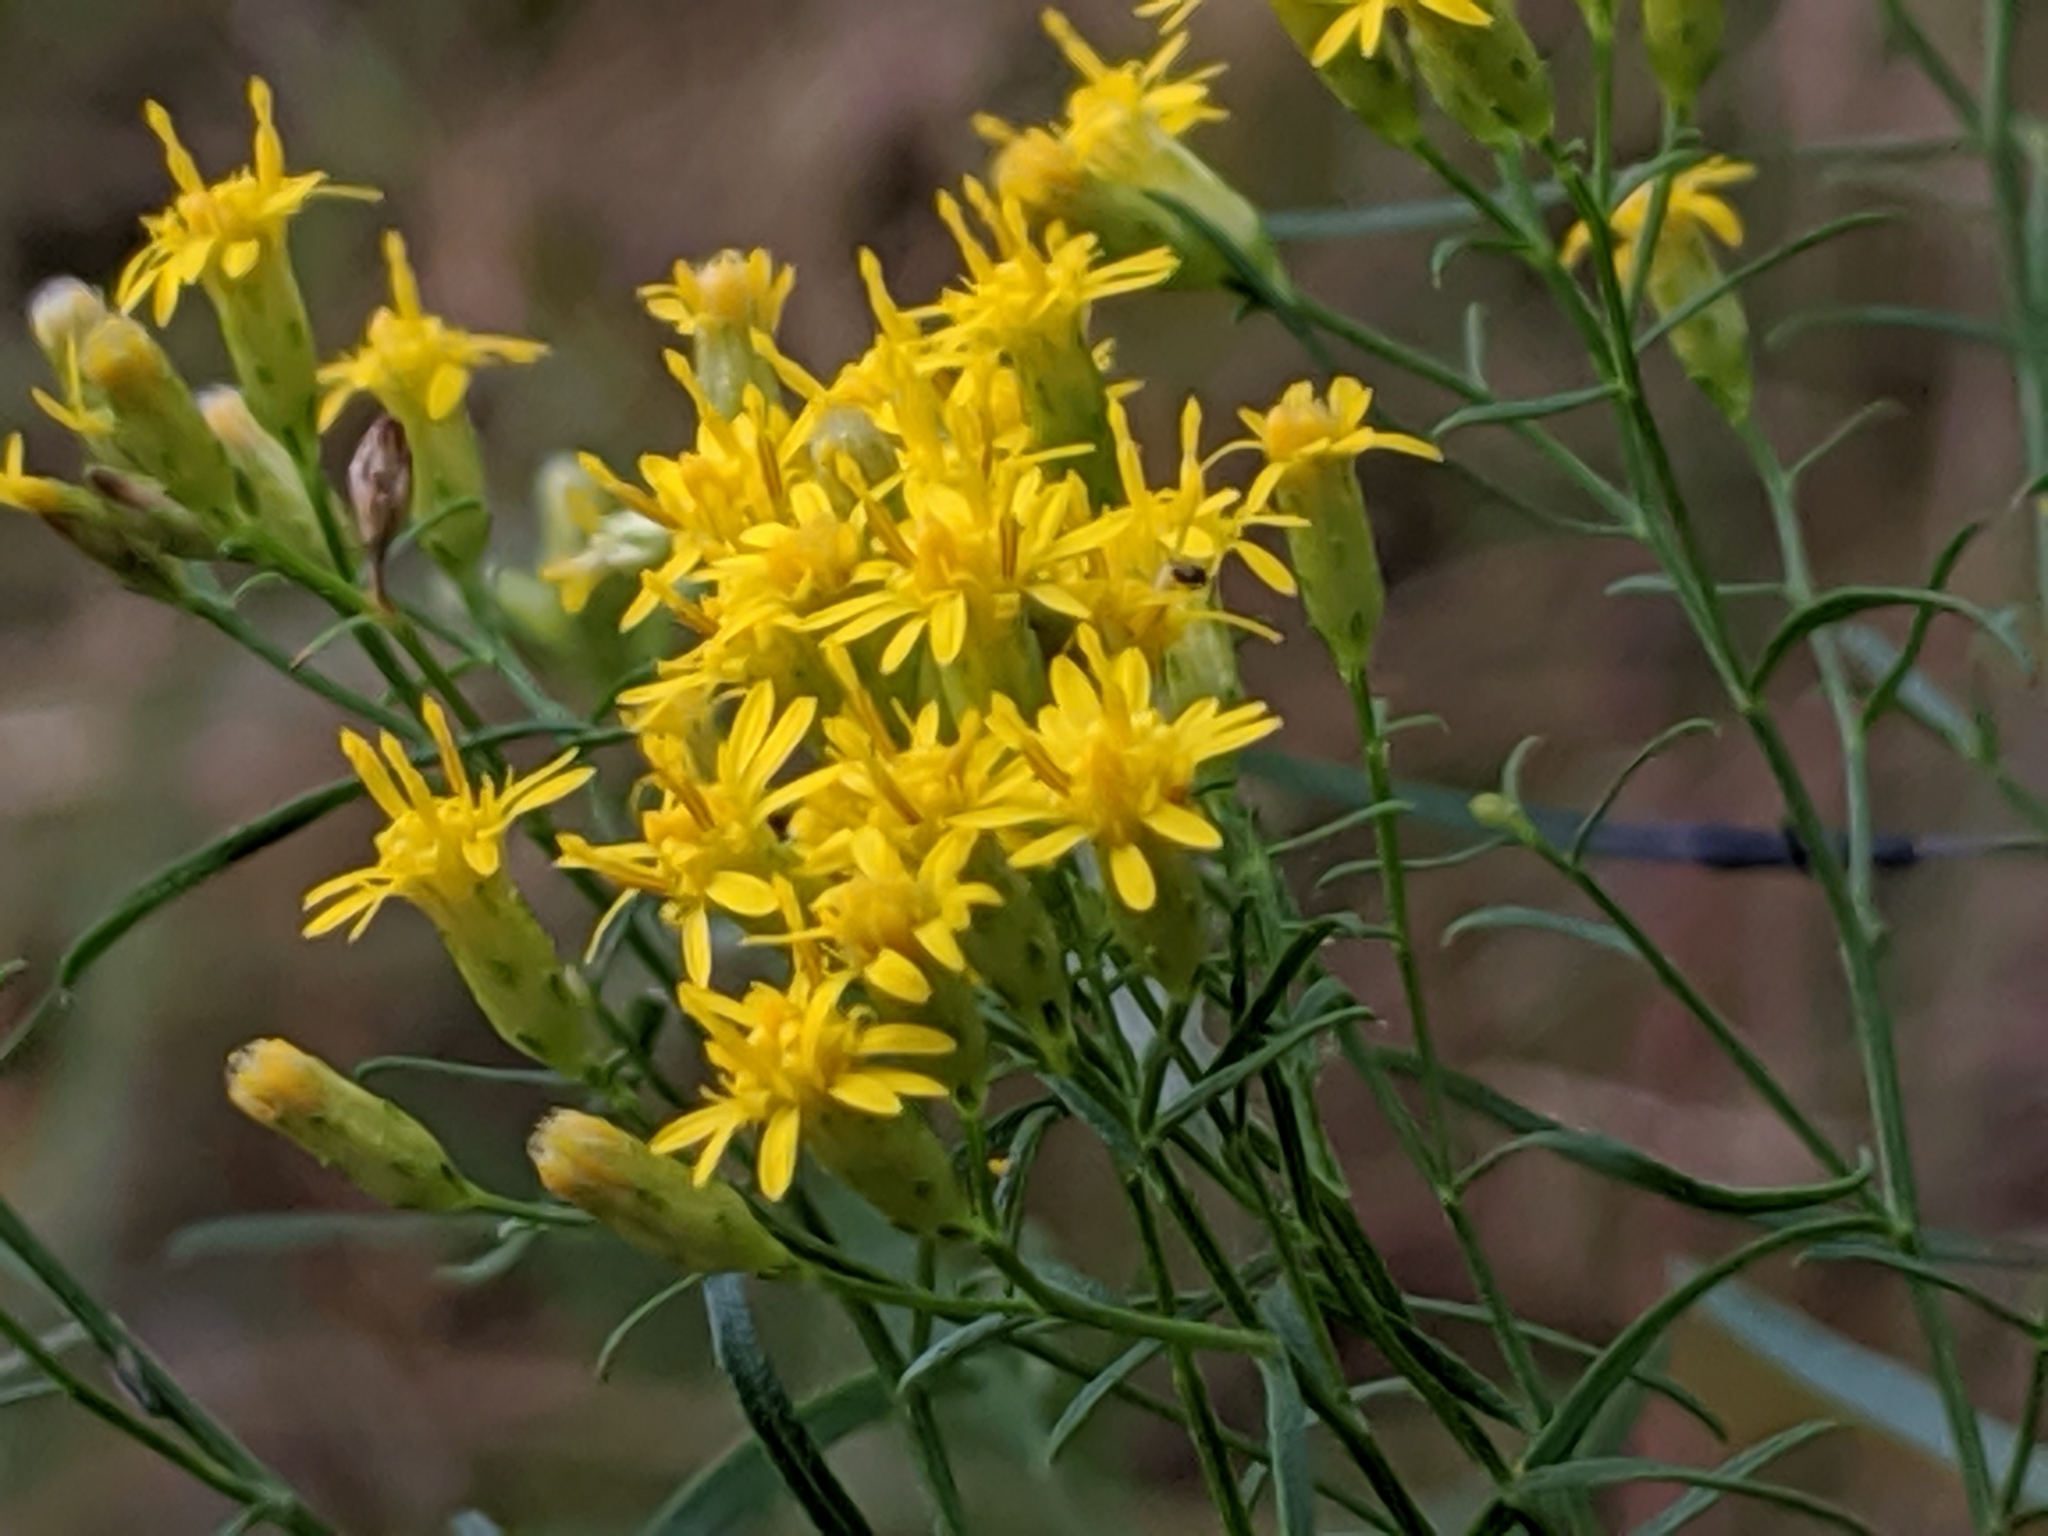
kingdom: Plantae
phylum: Tracheophyta
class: Magnoliopsida
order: Asterales
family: Asteraceae
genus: Euthamia
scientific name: Euthamia caroliniana
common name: Coastal plain goldentop
